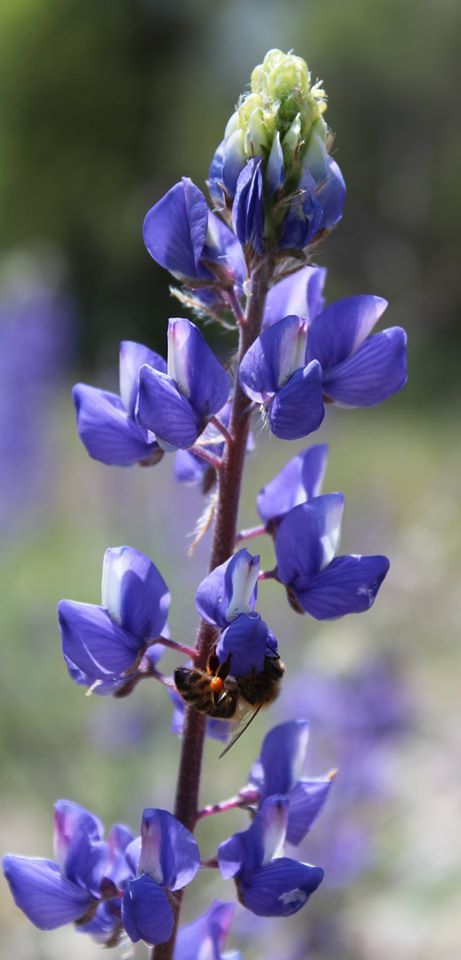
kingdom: Plantae
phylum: Tracheophyta
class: Magnoliopsida
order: Fabales
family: Fabaceae
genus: Lupinus
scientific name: Lupinus nanus
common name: Orean blue lupin
